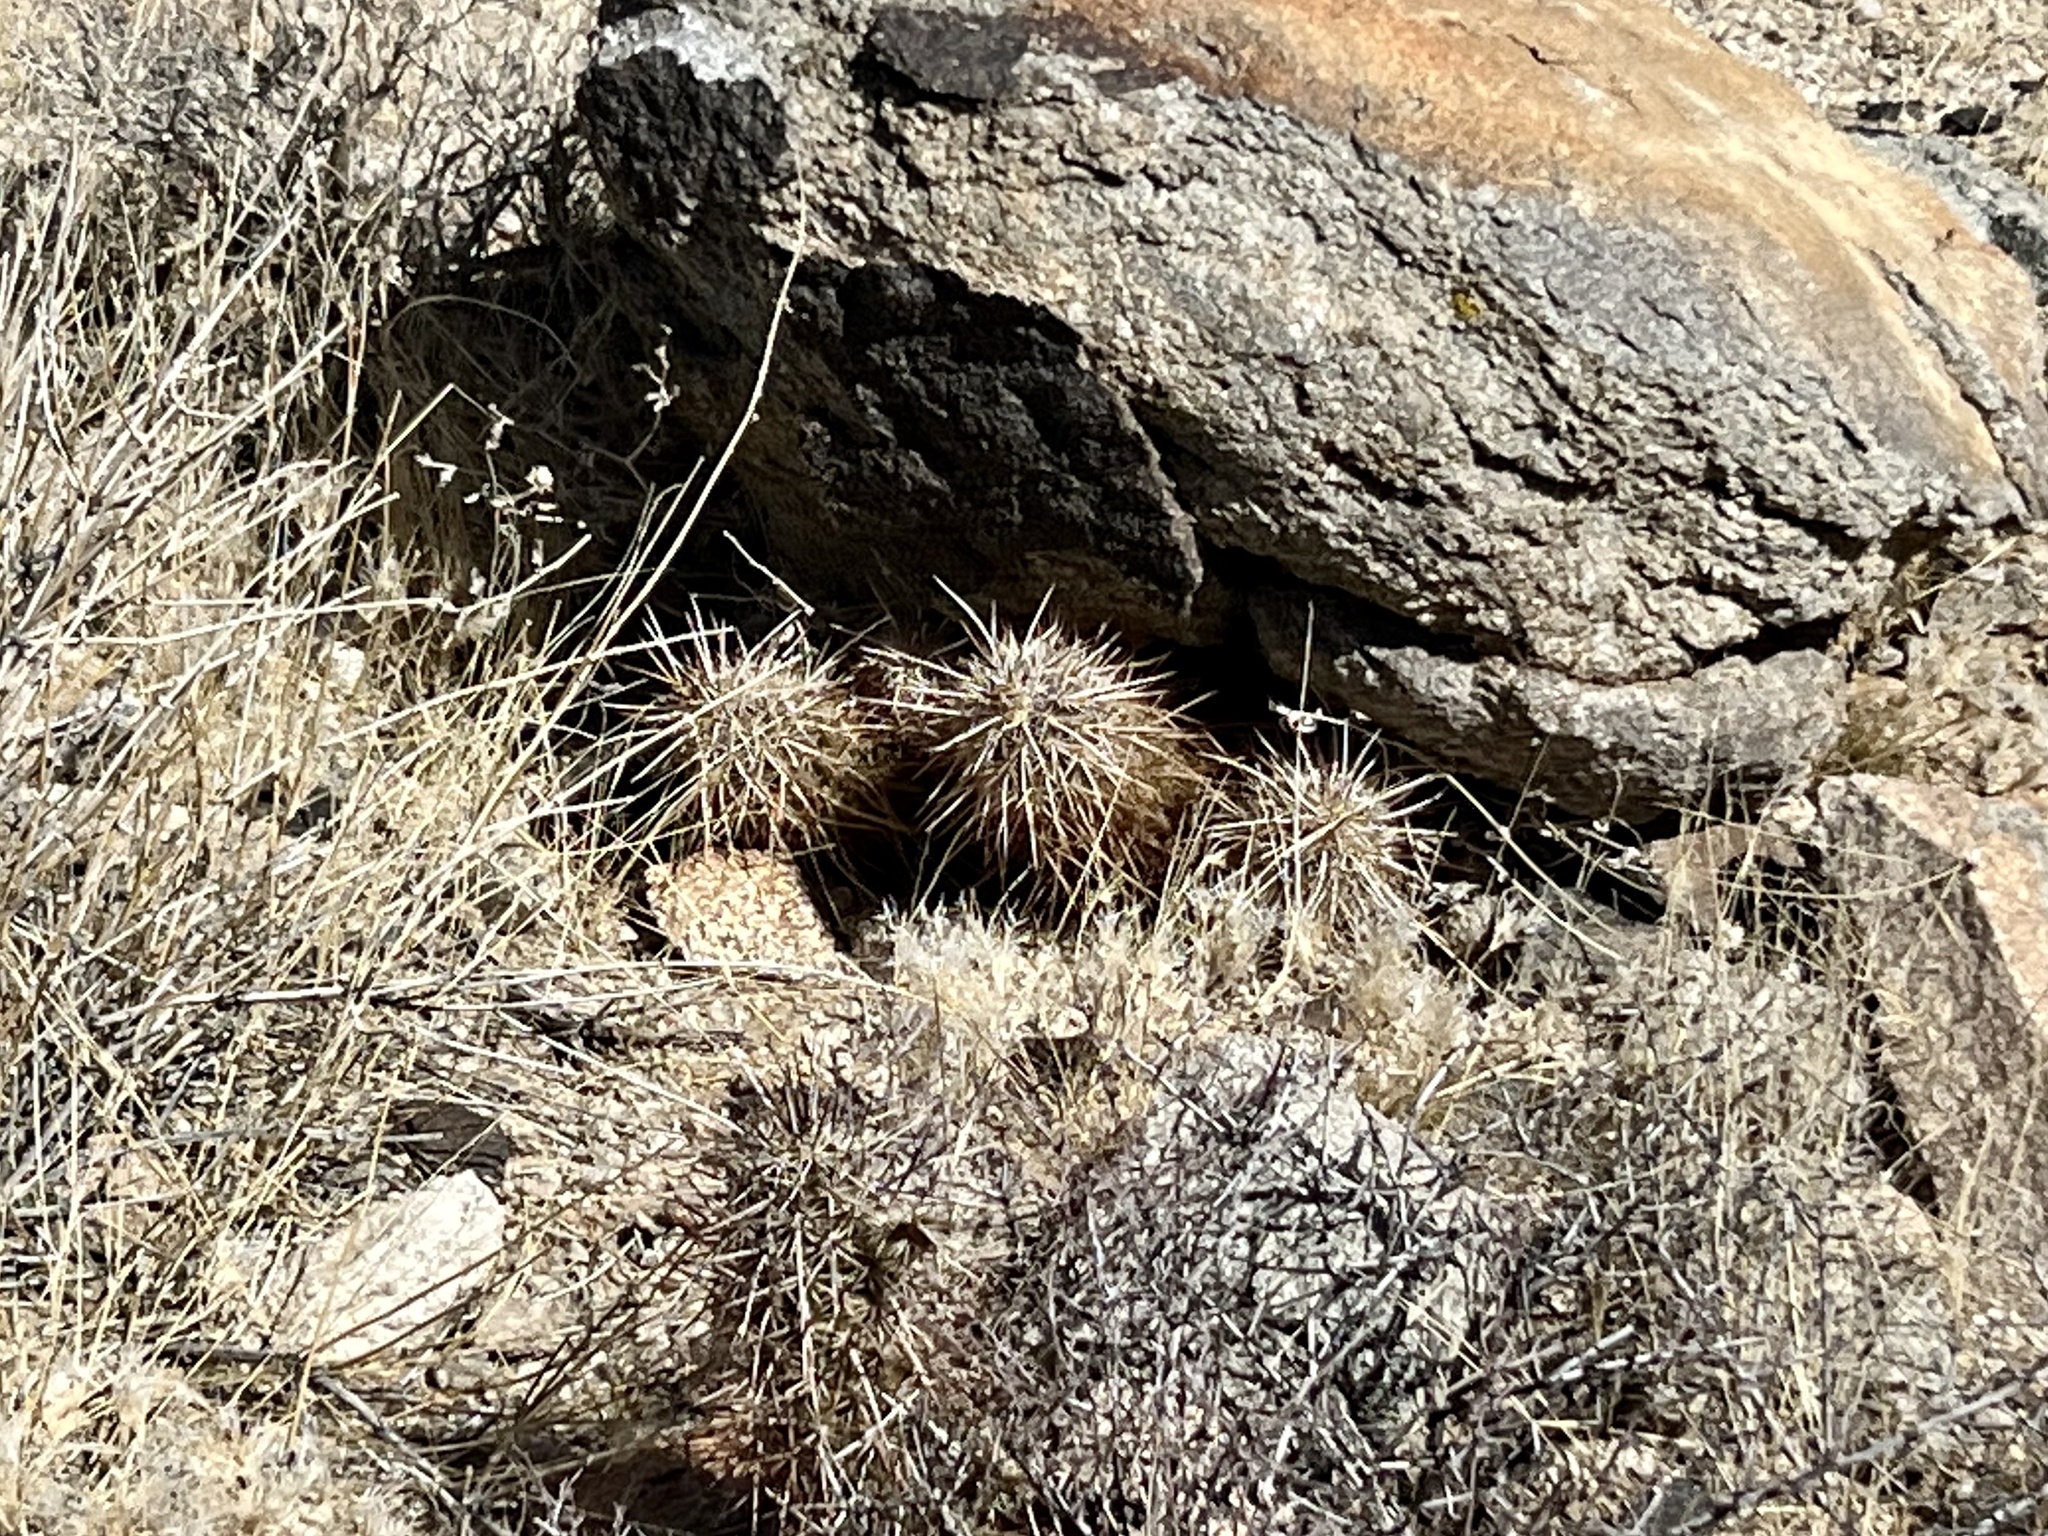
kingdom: Plantae
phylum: Tracheophyta
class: Magnoliopsida
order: Caryophyllales
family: Cactaceae
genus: Echinocereus
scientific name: Echinocereus engelmannii
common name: Engelmann's hedgehog cactus
